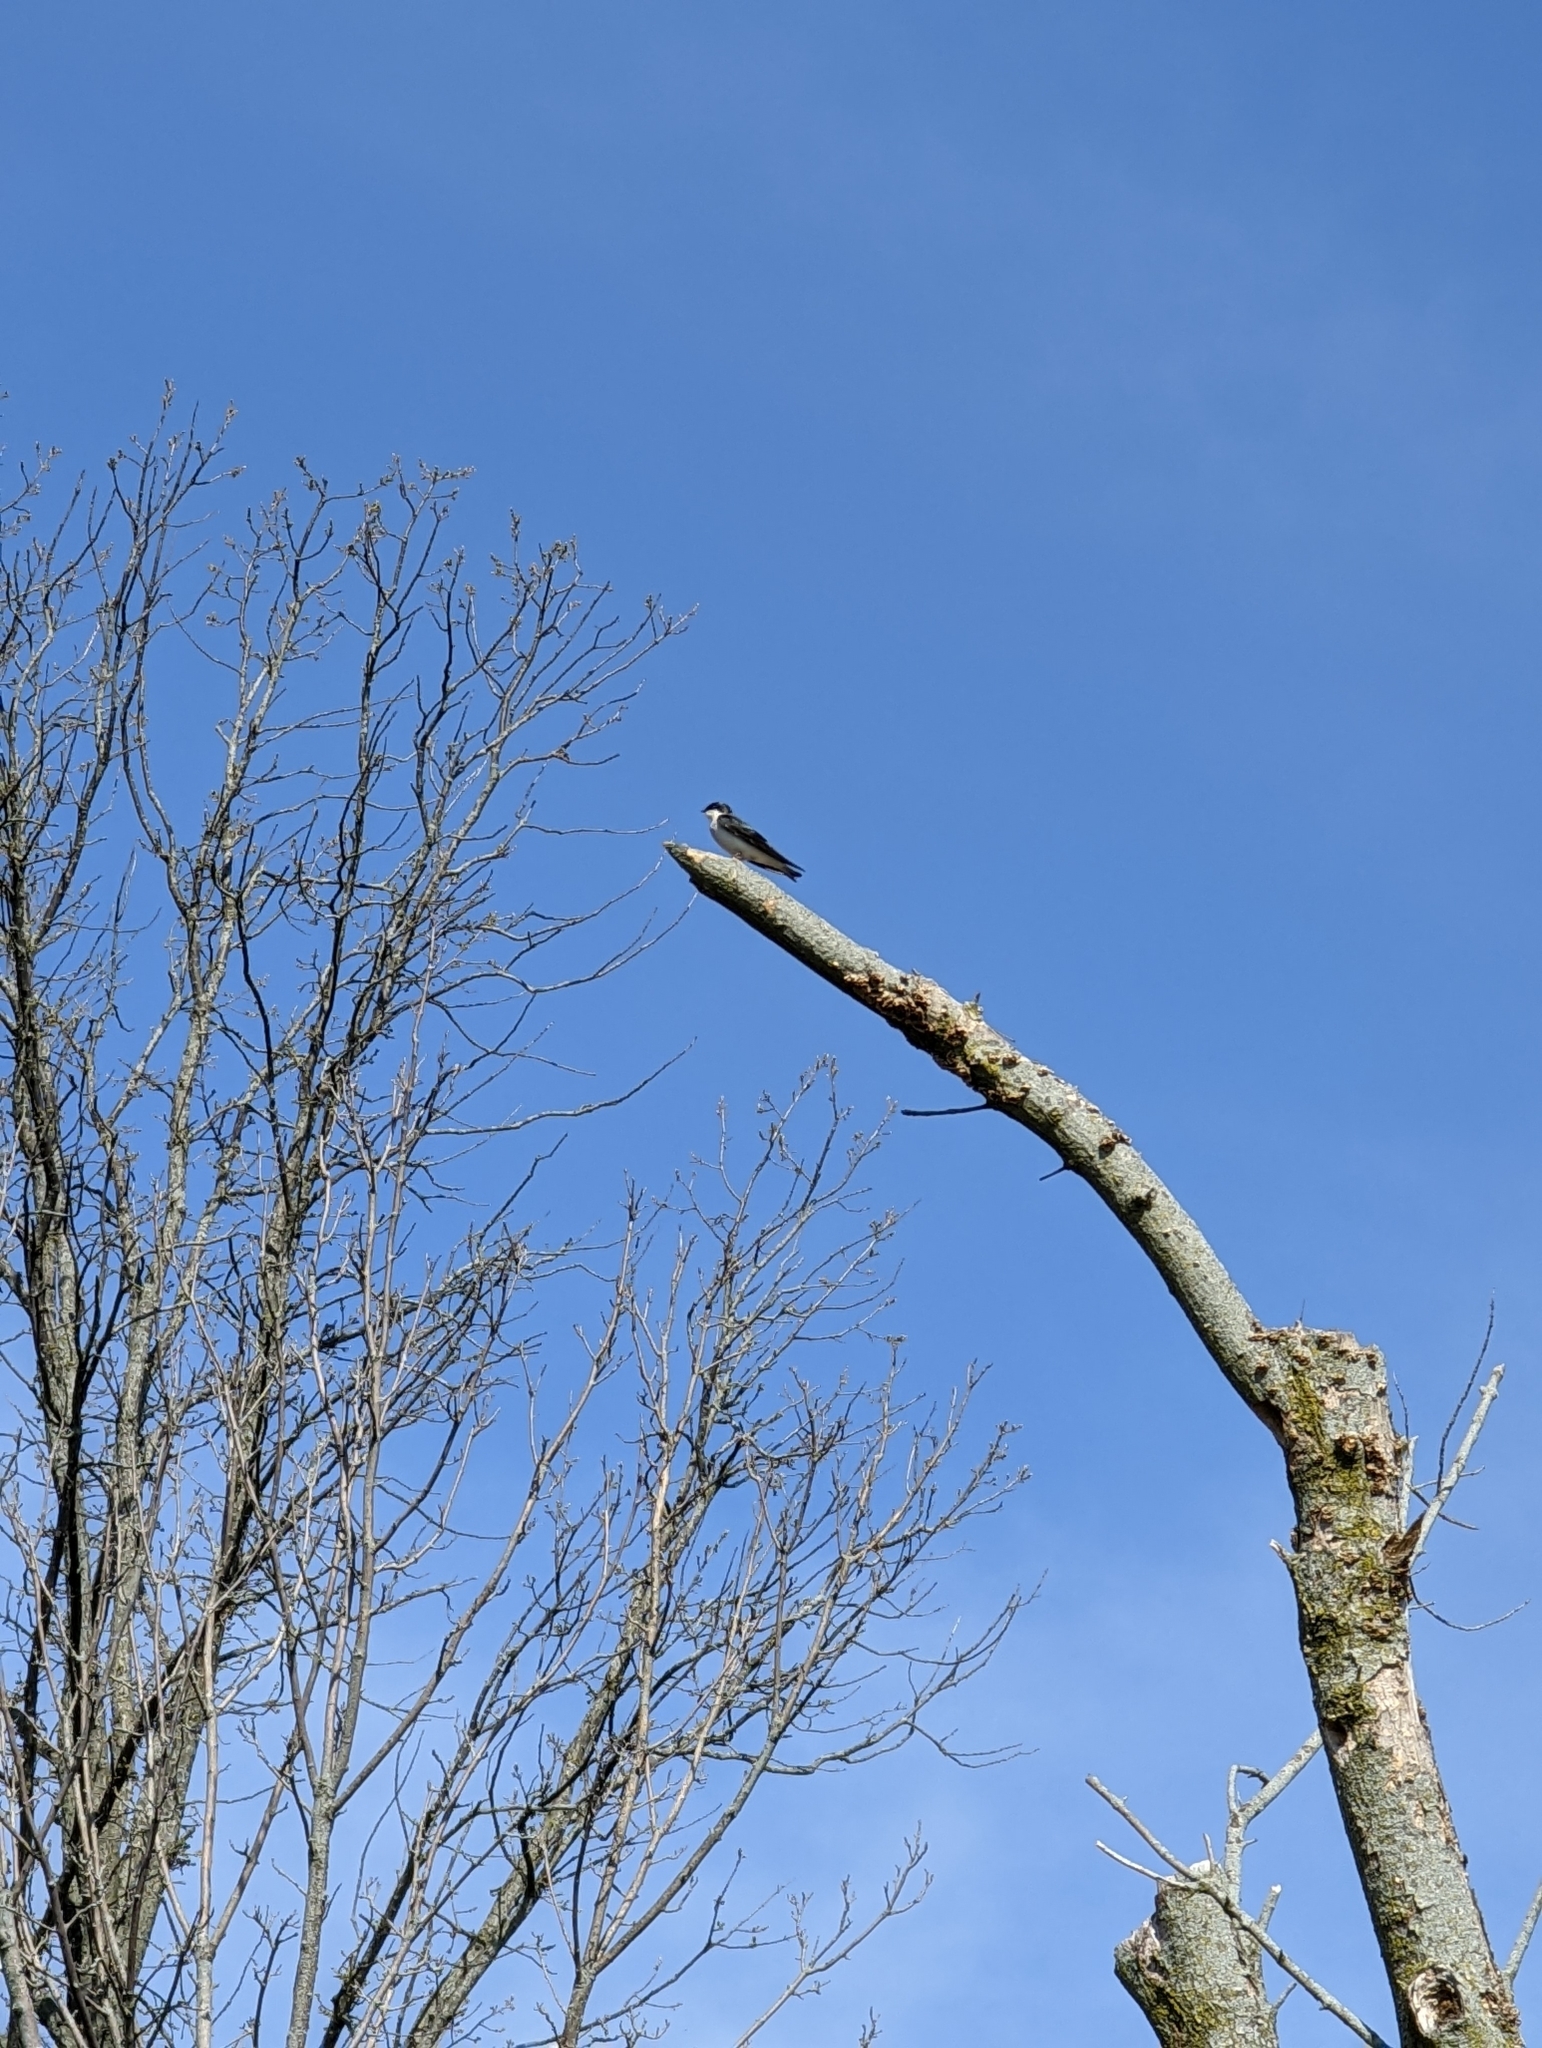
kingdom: Animalia
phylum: Chordata
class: Aves
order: Passeriformes
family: Hirundinidae
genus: Tachycineta
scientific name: Tachycineta bicolor
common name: Tree swallow
